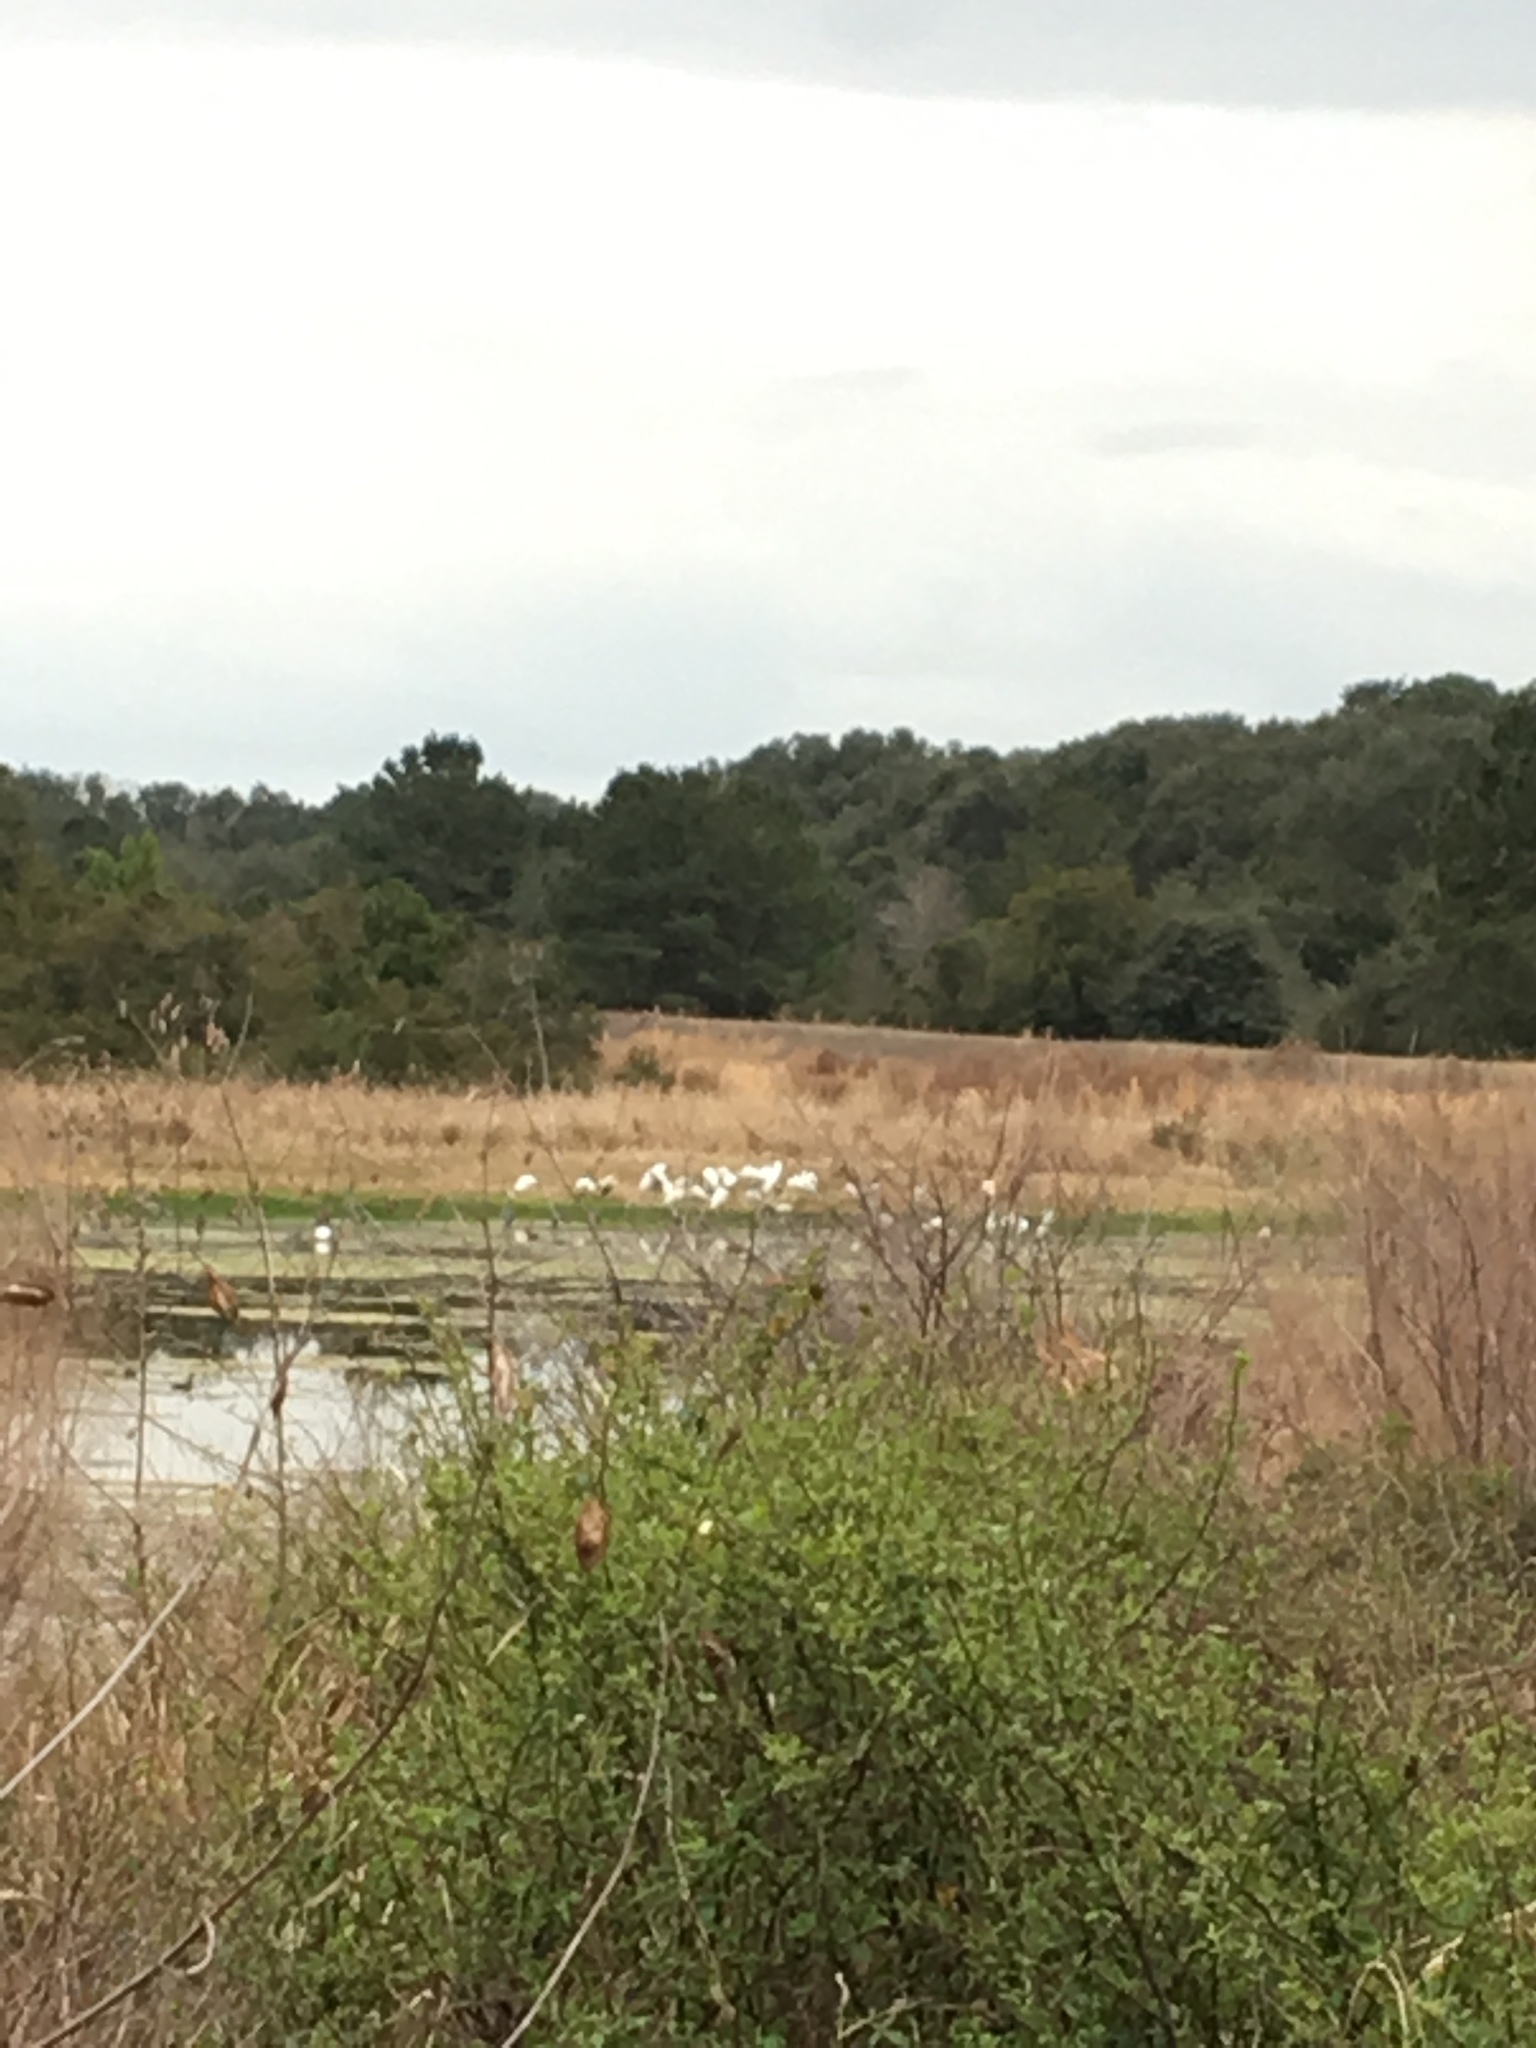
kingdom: Animalia
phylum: Chordata
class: Aves
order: Ciconiiformes
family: Ciconiidae
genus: Mycteria
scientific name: Mycteria americana
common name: Wood stork
